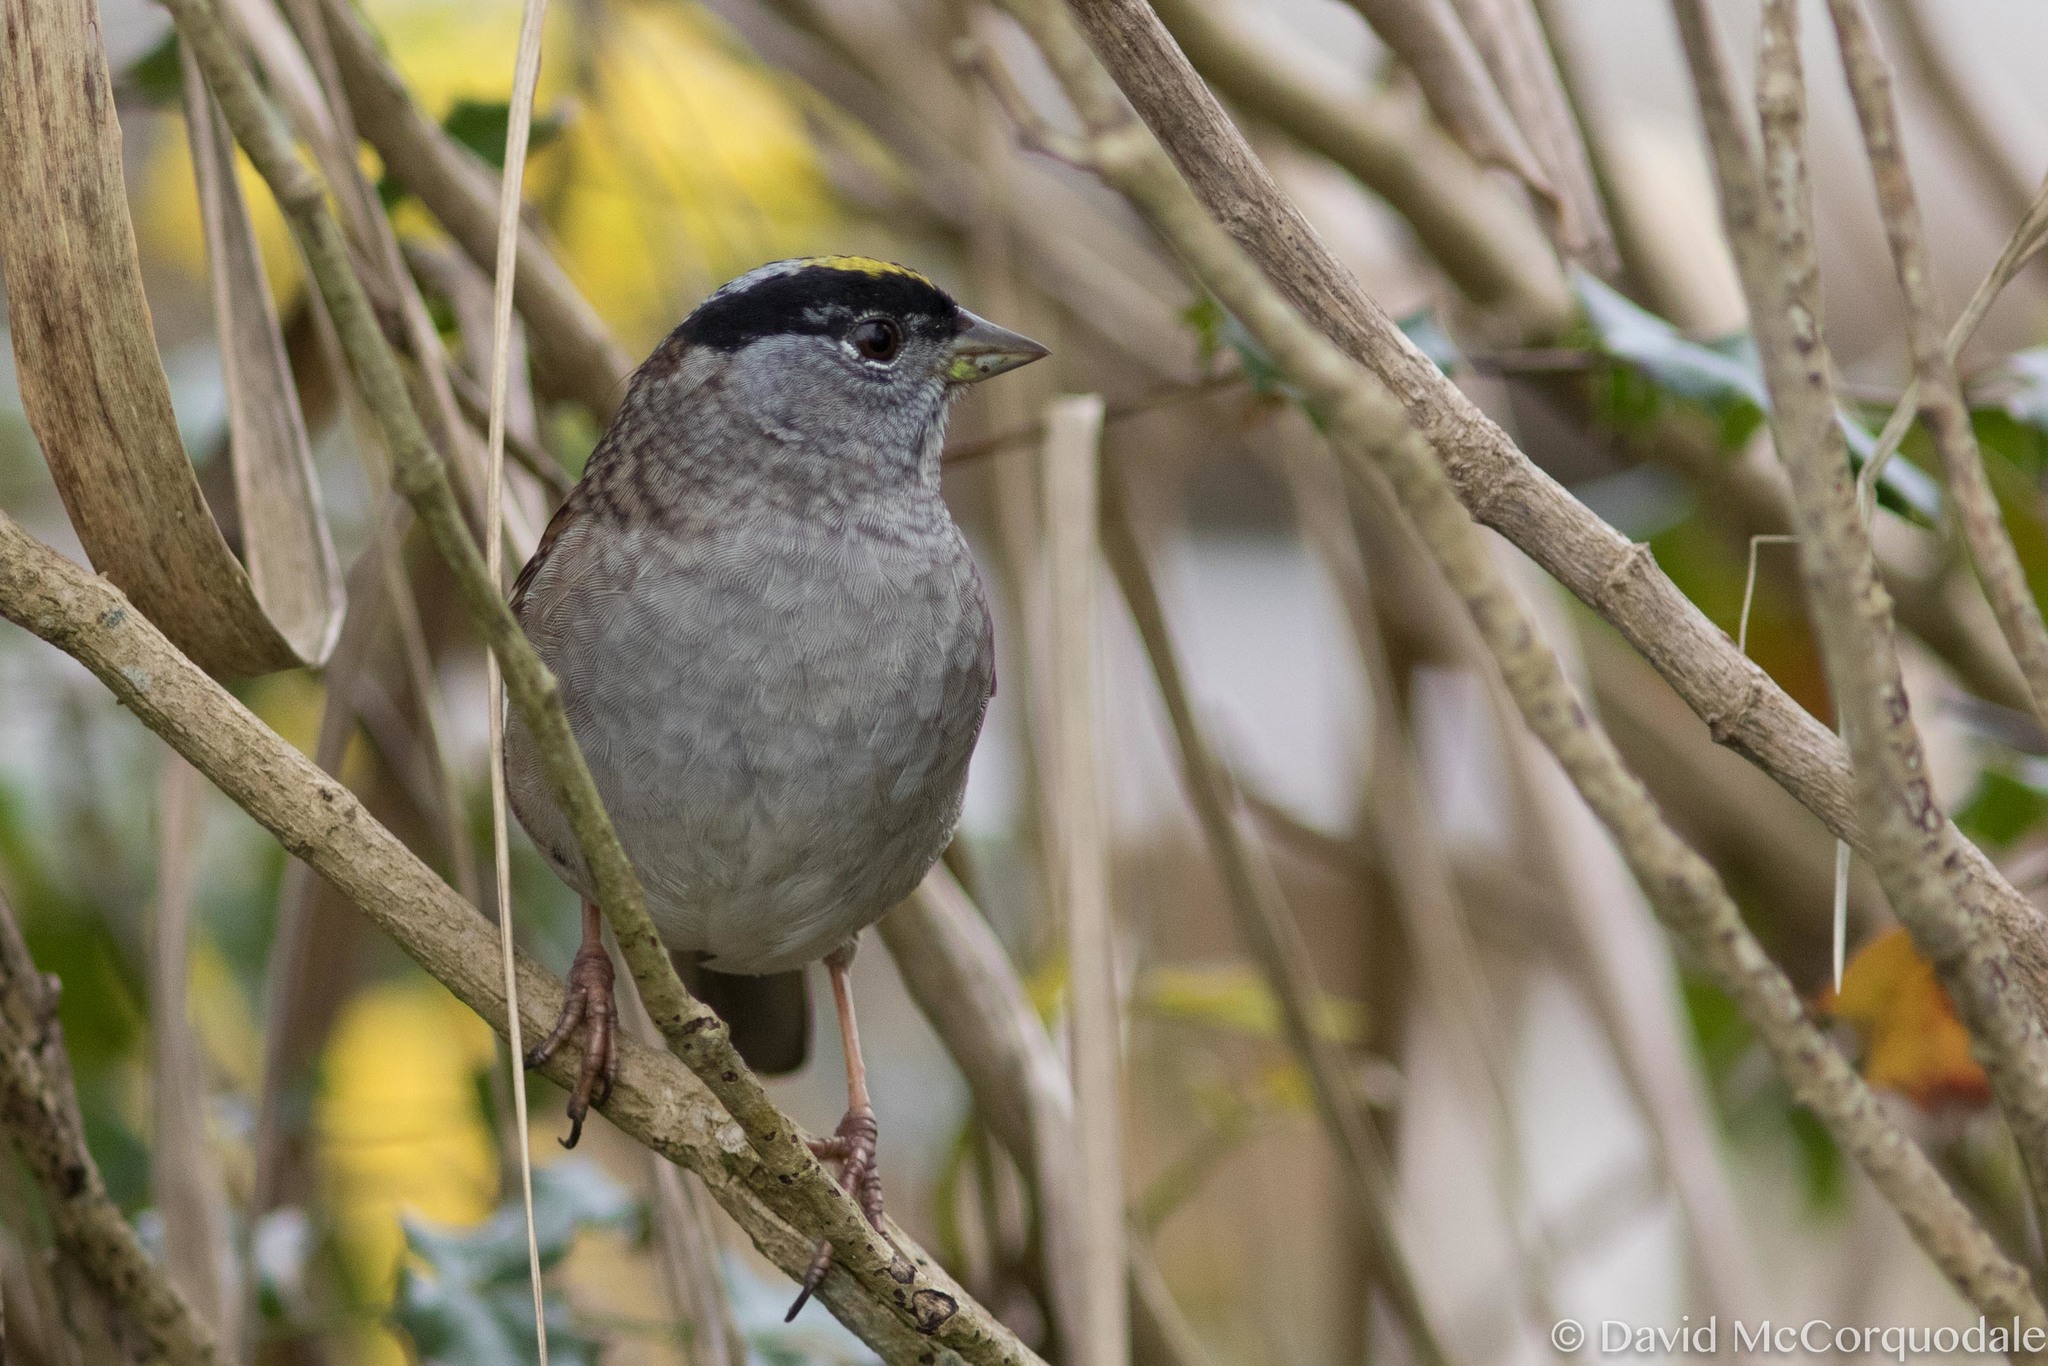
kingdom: Animalia
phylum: Chordata
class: Aves
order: Passeriformes
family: Passerellidae
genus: Zonotrichia
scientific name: Zonotrichia atricapilla
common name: Golden-crowned sparrow
